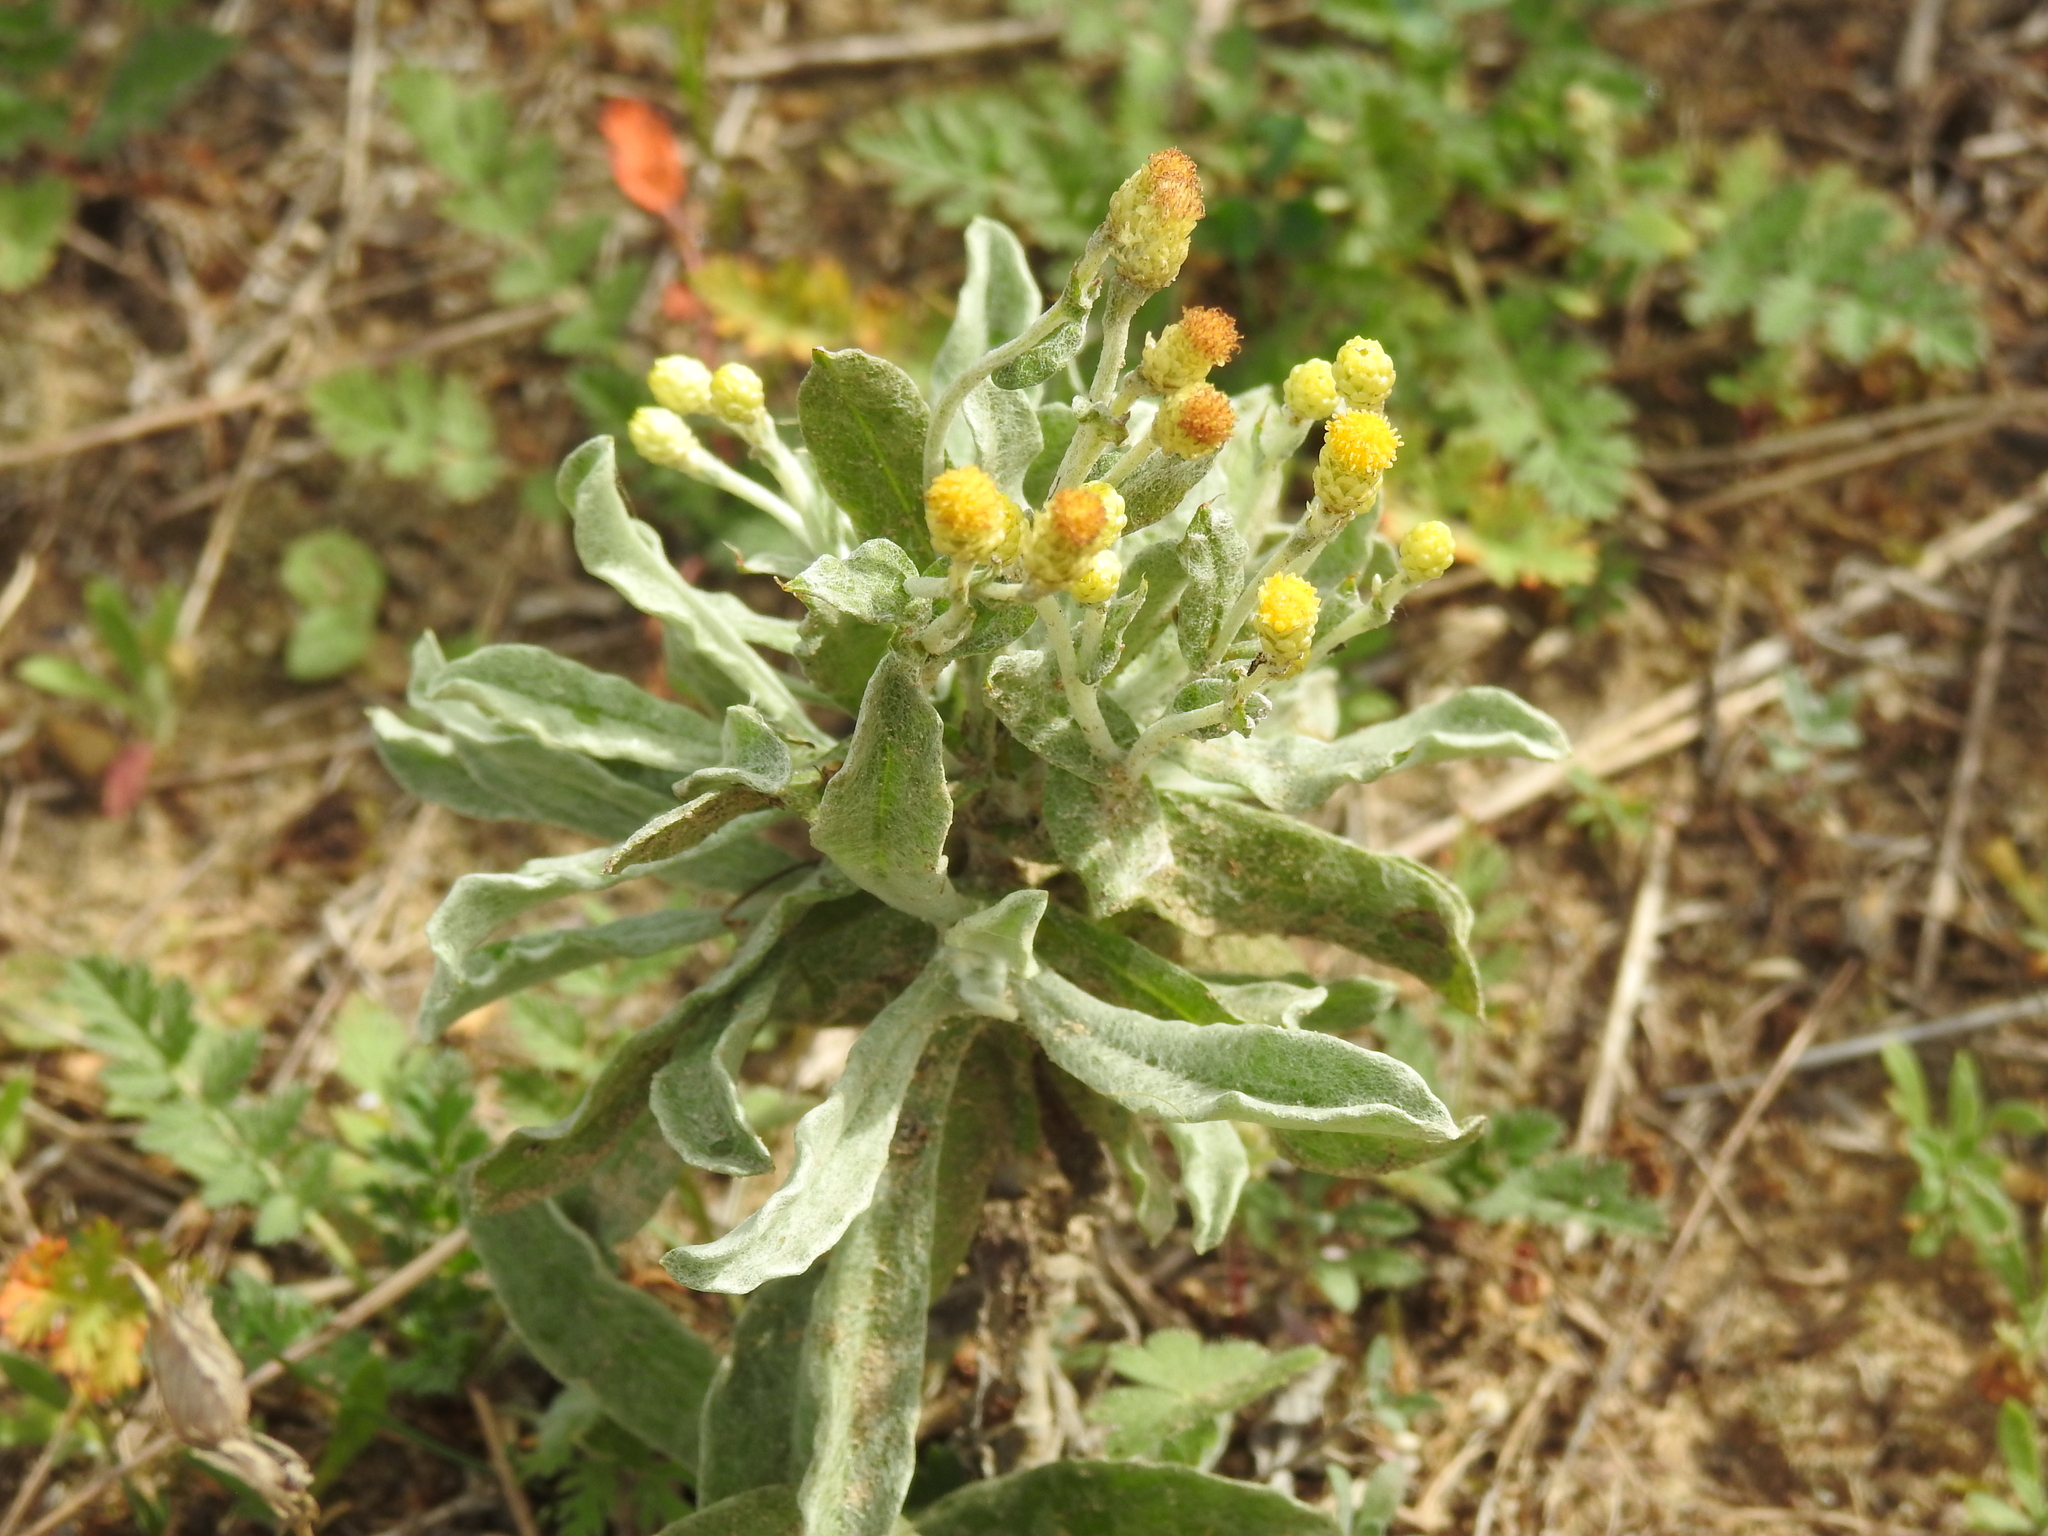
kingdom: Plantae
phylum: Tracheophyta
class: Magnoliopsida
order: Asterales
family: Asteraceae
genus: Helichrysum
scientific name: Helichrysum arenarium
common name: Strawflower
